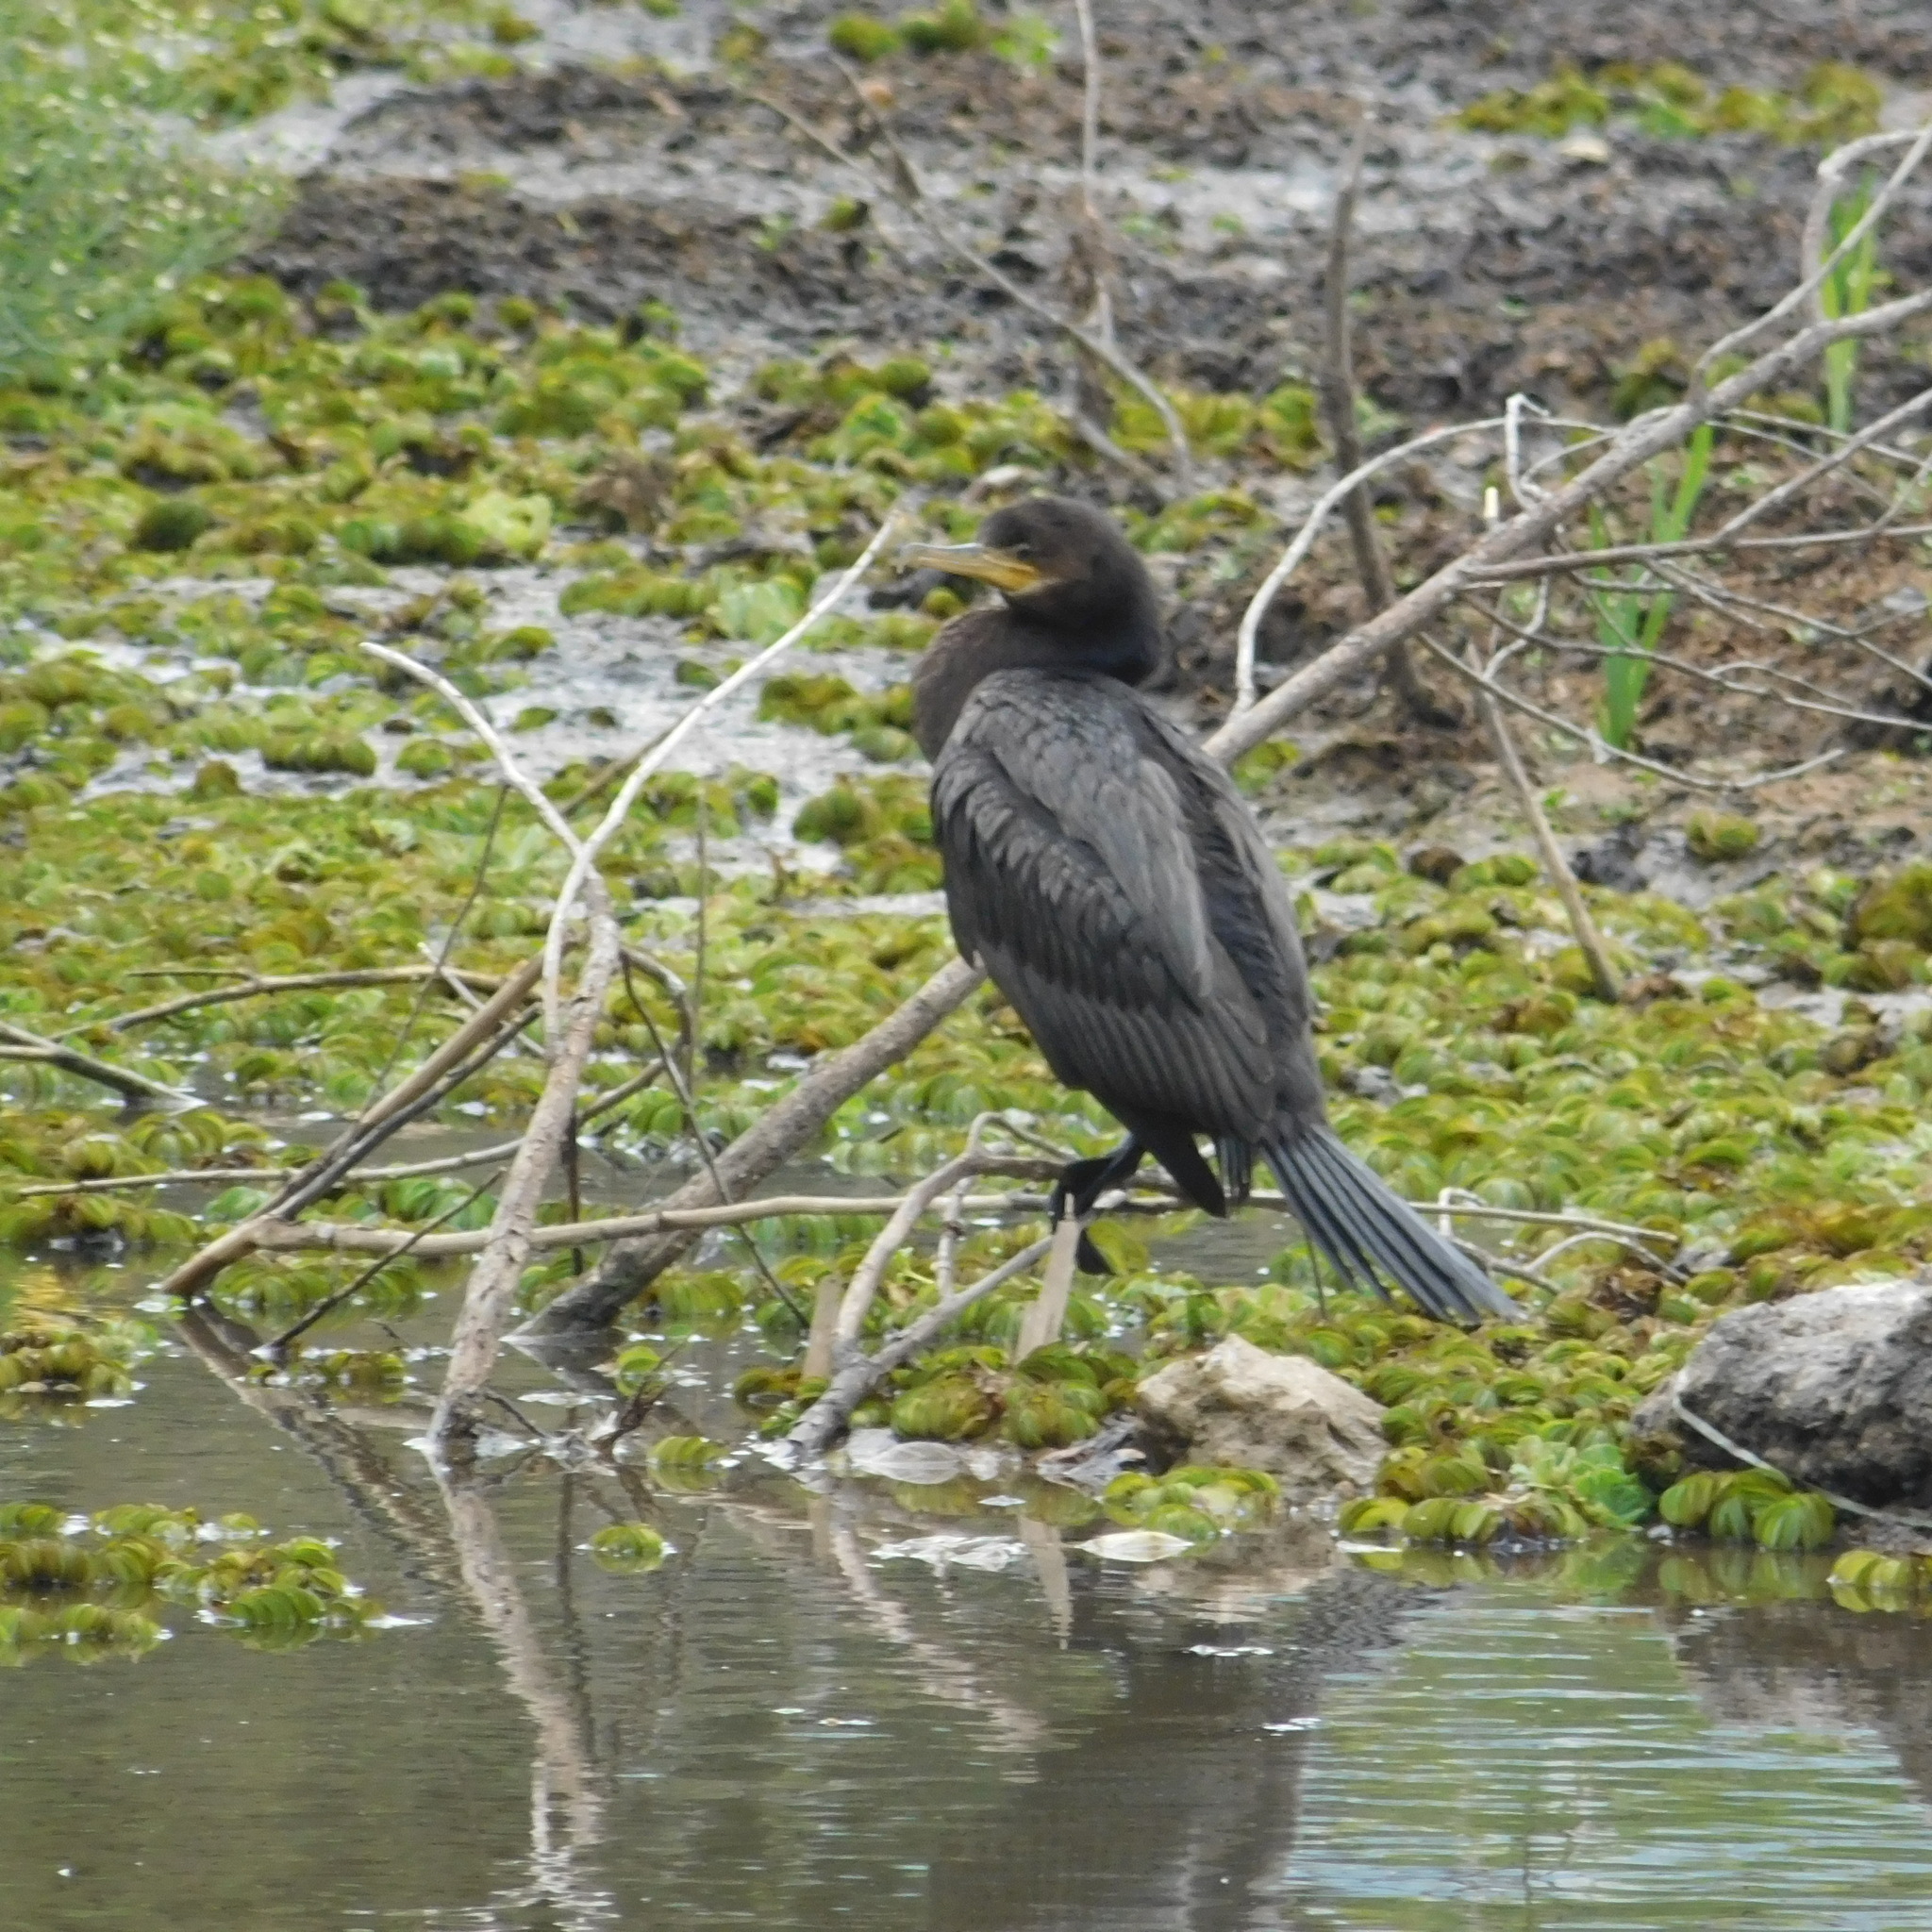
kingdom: Animalia
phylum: Chordata
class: Aves
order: Suliformes
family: Phalacrocoracidae
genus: Phalacrocorax
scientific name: Phalacrocorax brasilianus
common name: Neotropic cormorant
